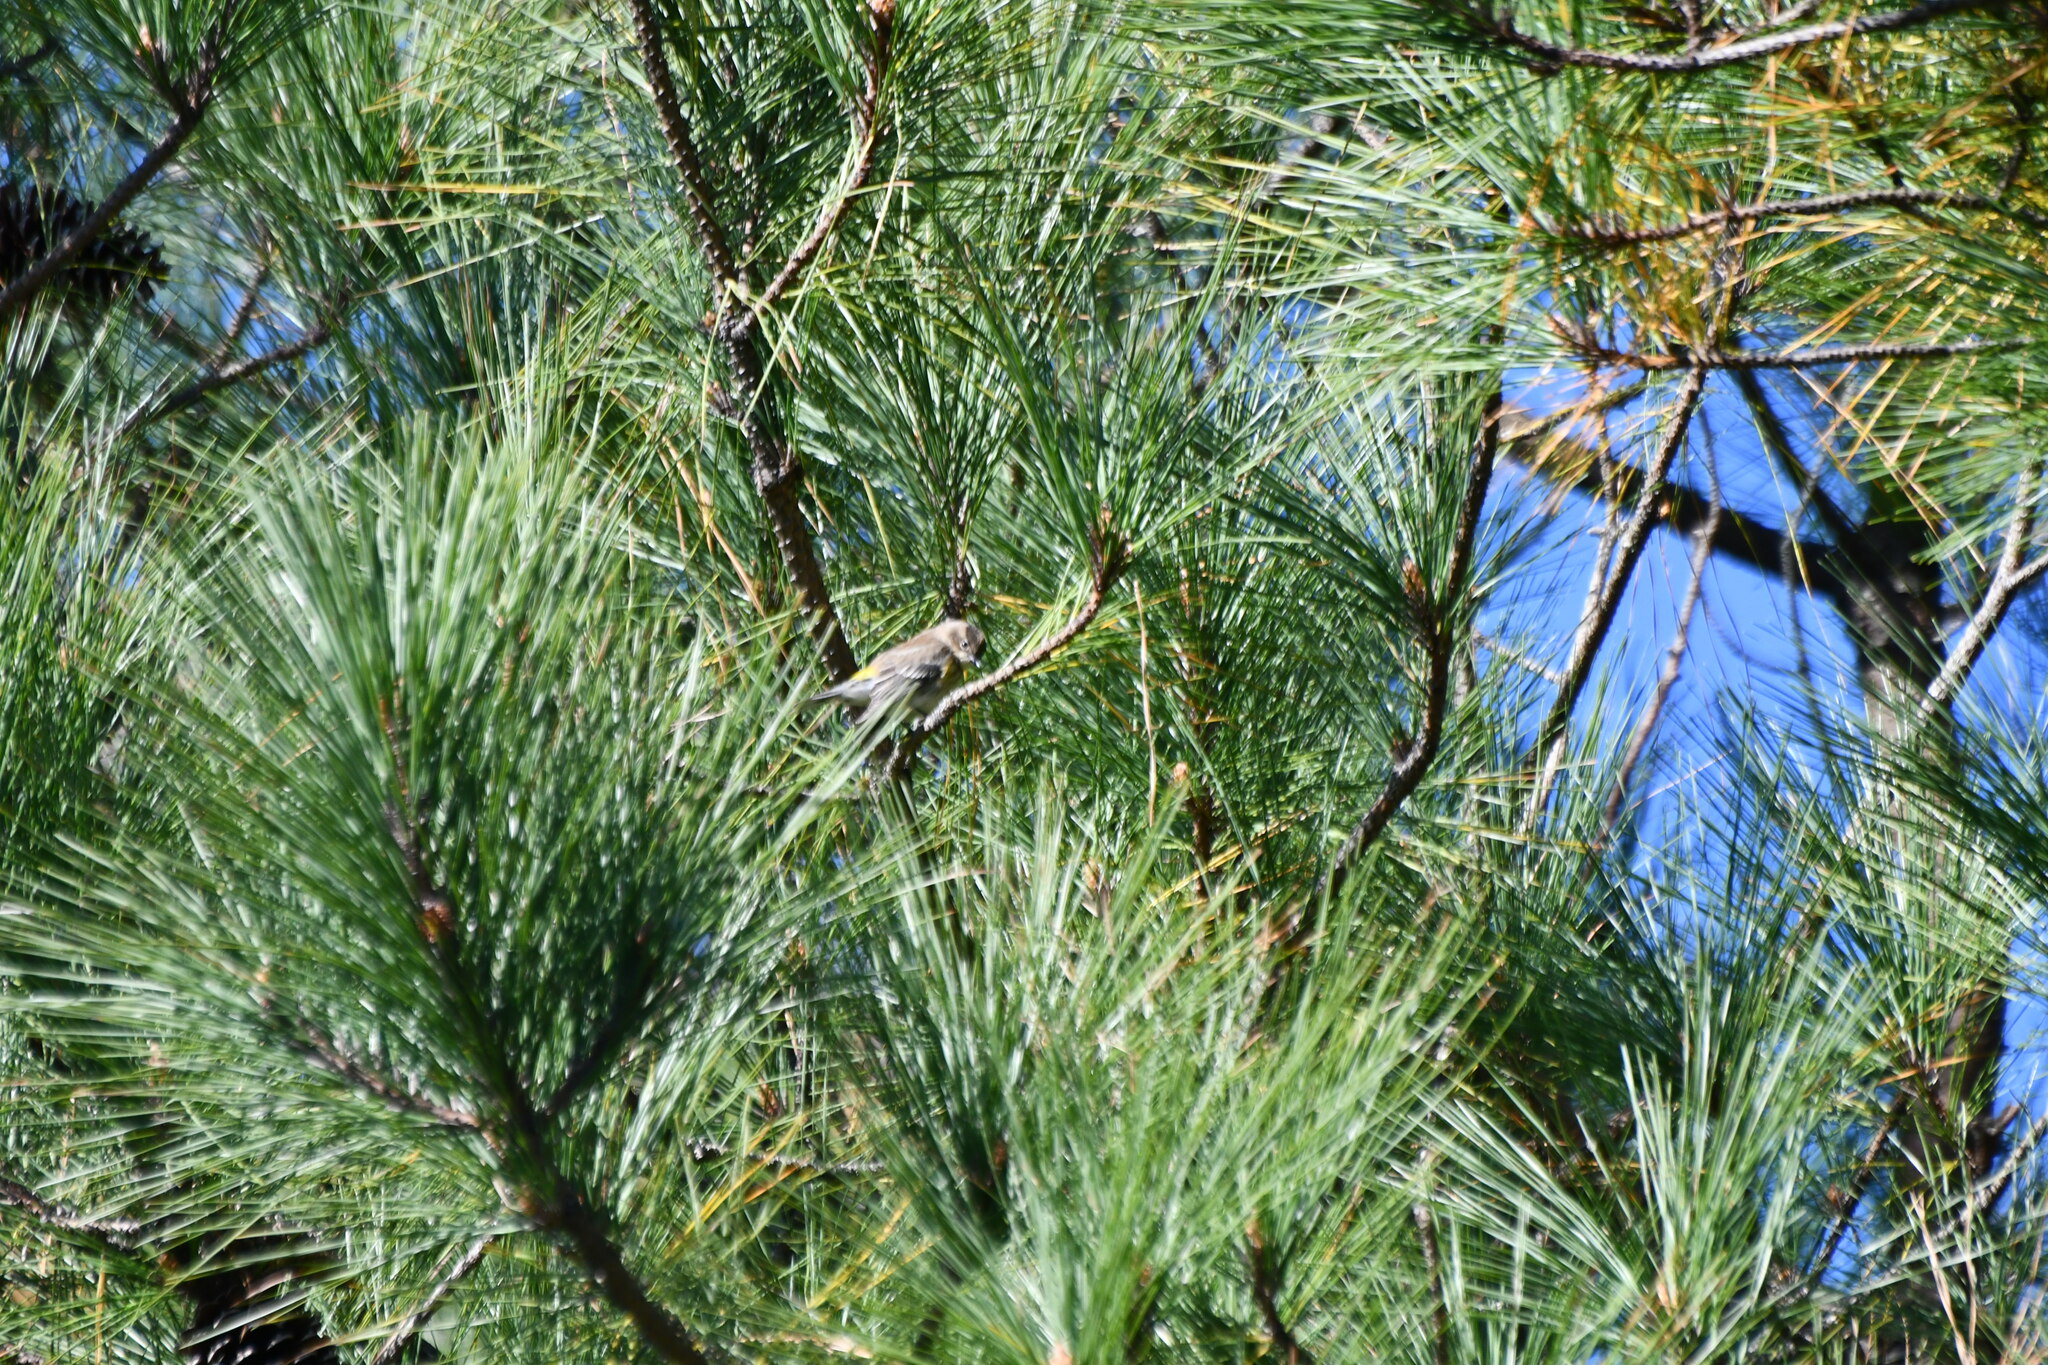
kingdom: Animalia
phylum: Chordata
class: Aves
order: Passeriformes
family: Parulidae
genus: Setophaga
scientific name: Setophaga coronata
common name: Myrtle warbler
